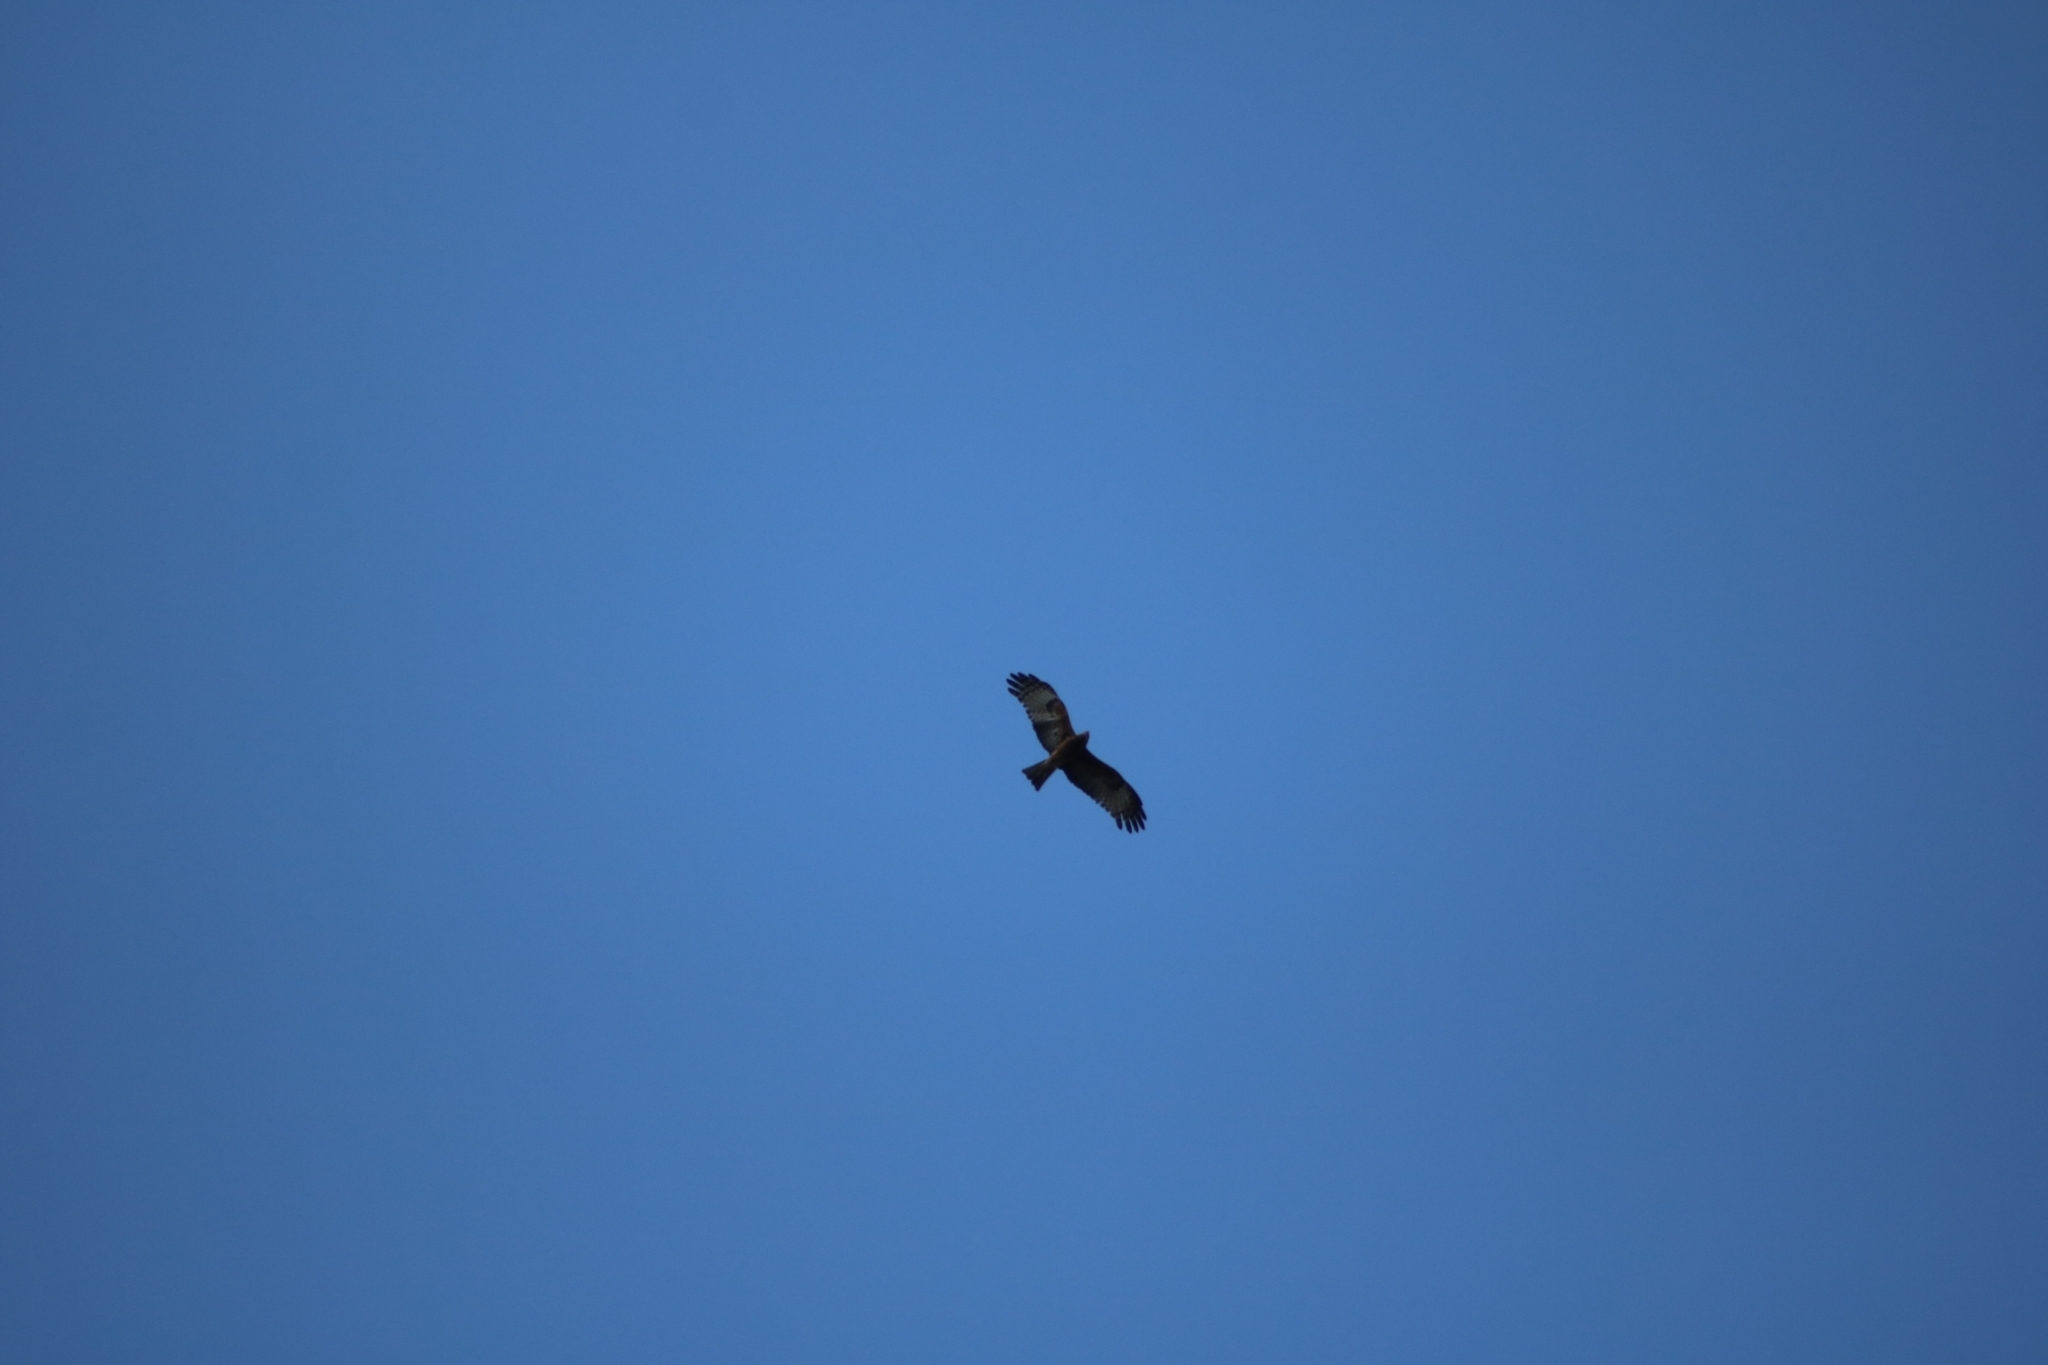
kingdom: Animalia
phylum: Chordata
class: Aves
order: Accipitriformes
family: Accipitridae
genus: Lophoictinia
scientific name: Lophoictinia isura
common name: Square-tailed kite
